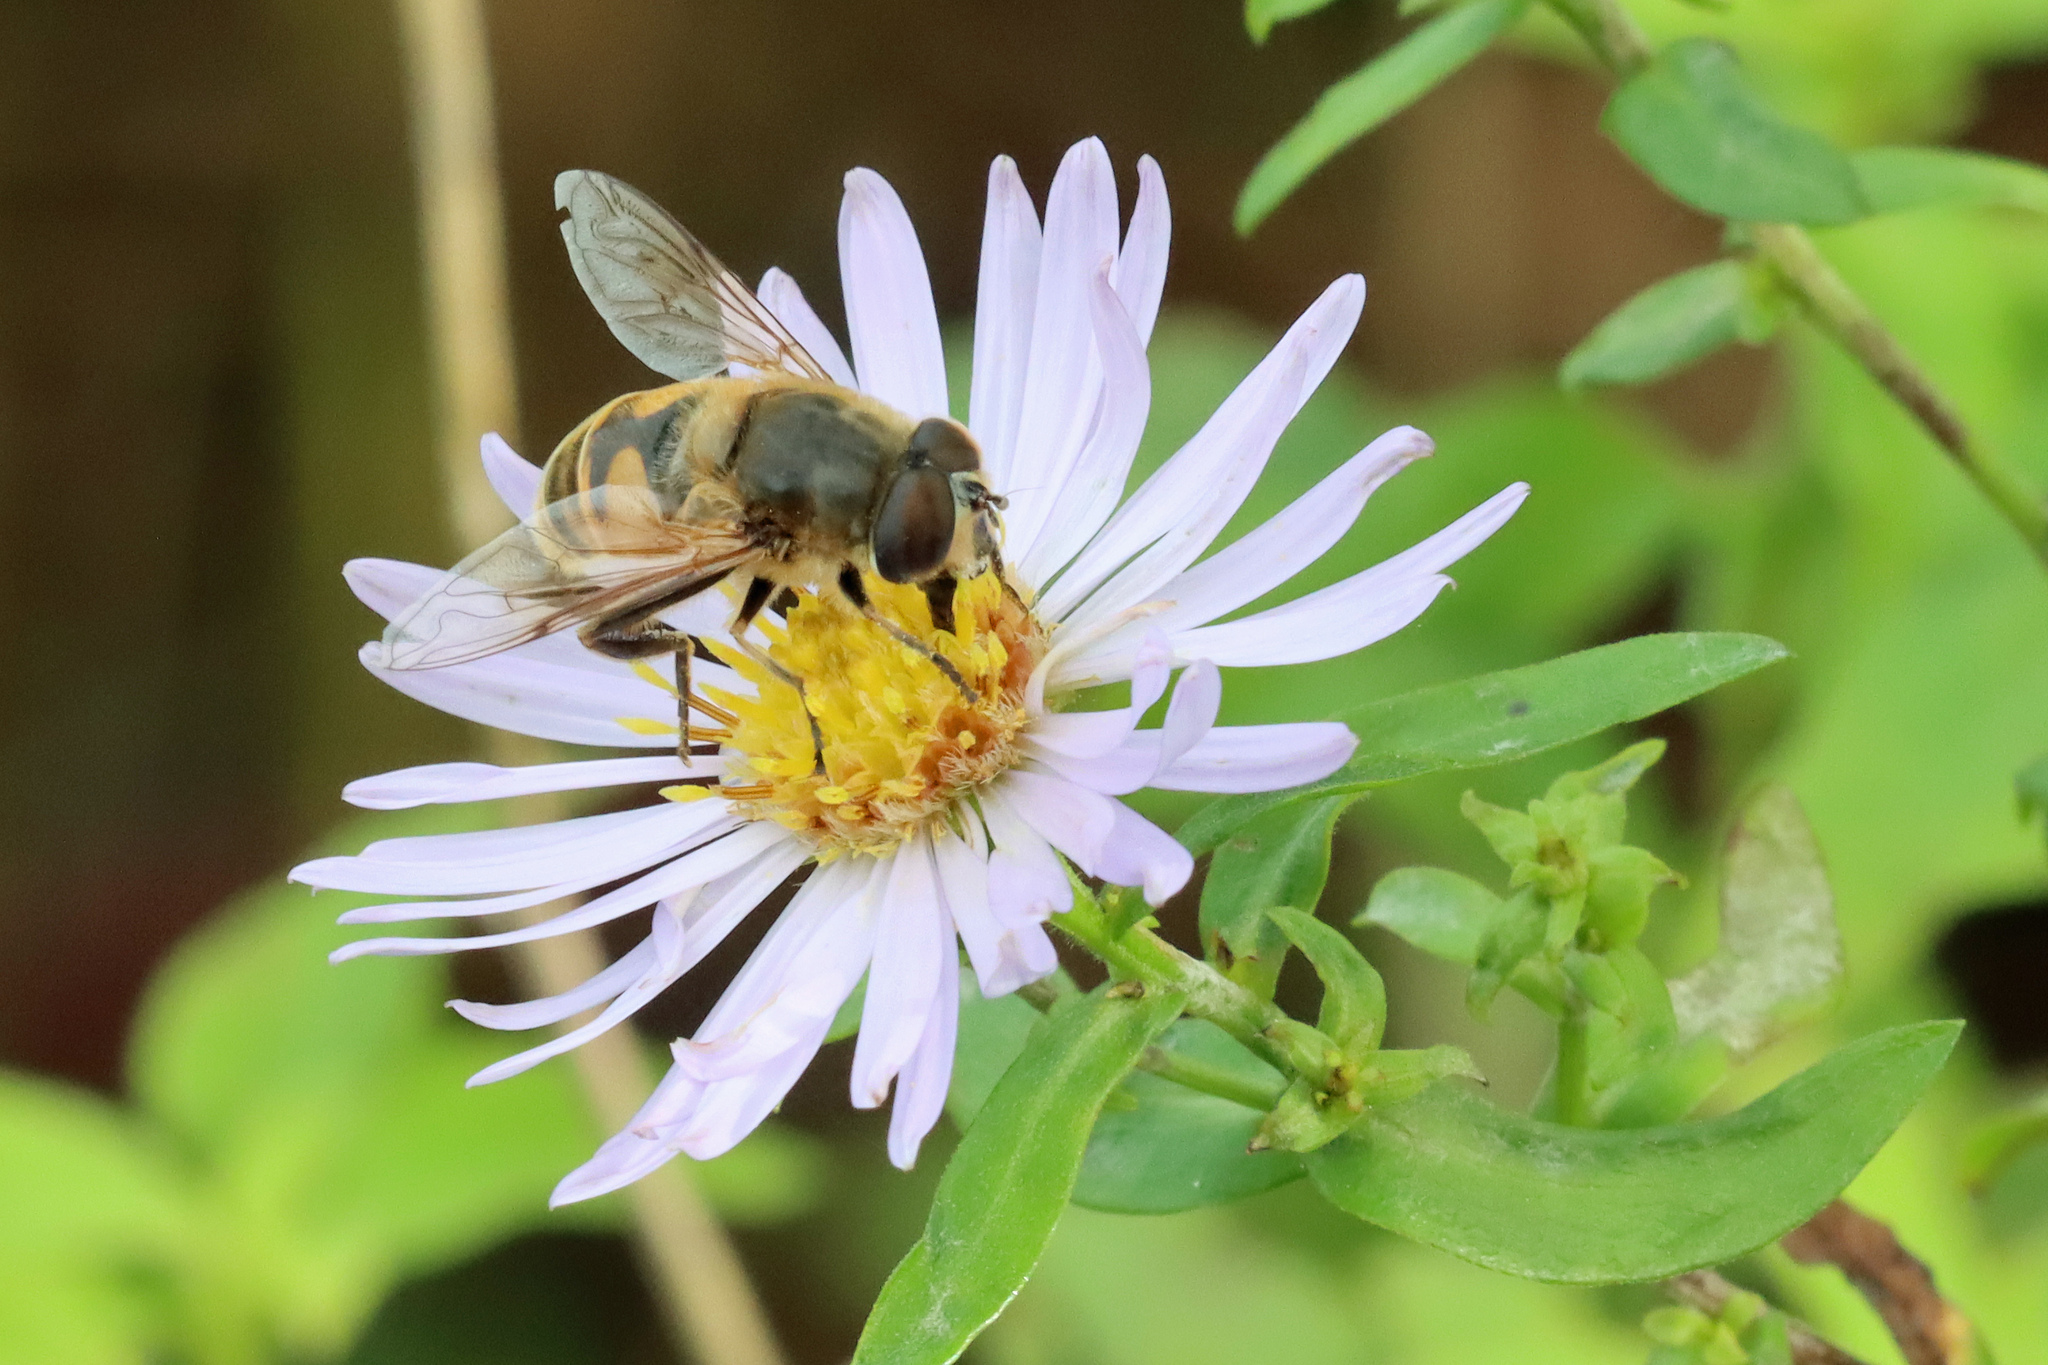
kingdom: Animalia
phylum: Arthropoda
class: Insecta
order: Diptera
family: Syrphidae
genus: Eristalis
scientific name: Eristalis tenax
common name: Drone fly
